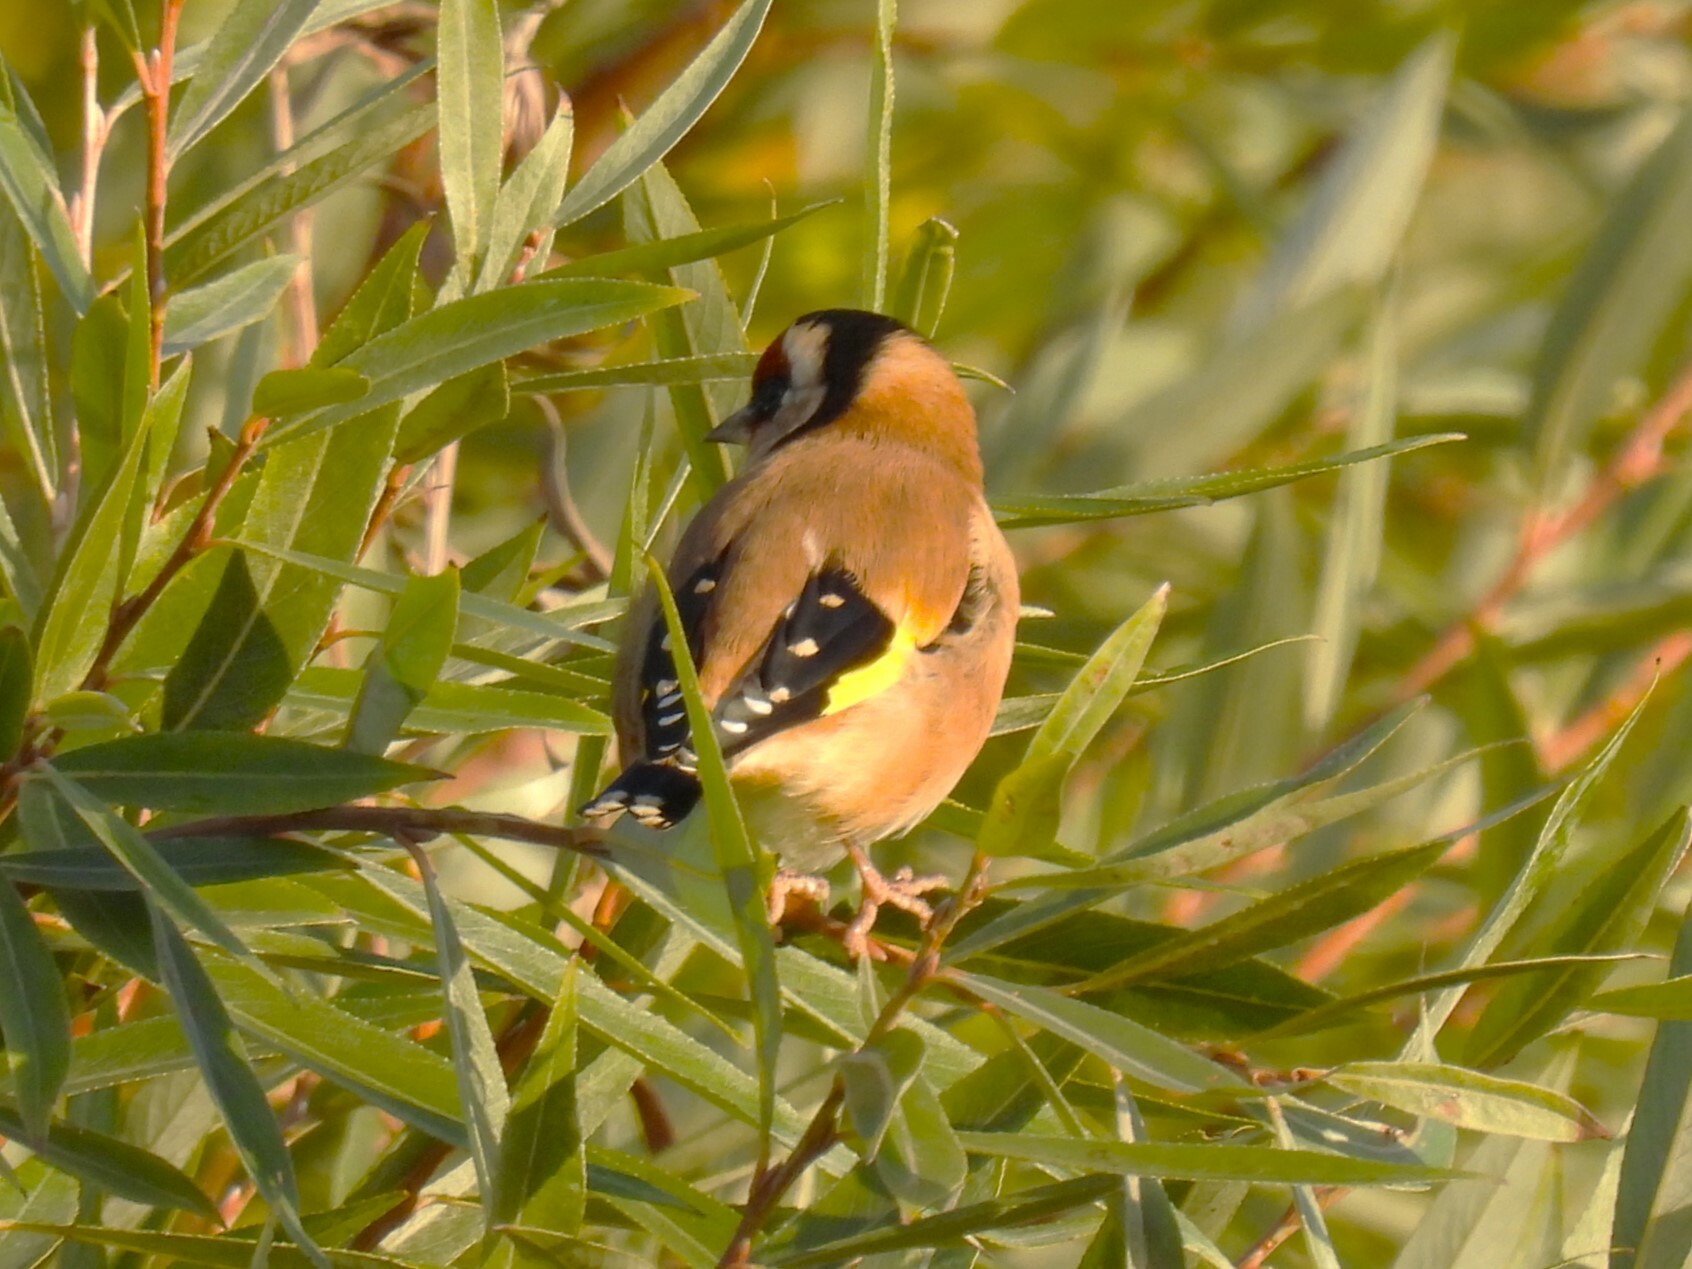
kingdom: Animalia
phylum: Chordata
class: Aves
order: Passeriformes
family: Fringillidae
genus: Carduelis
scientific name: Carduelis carduelis
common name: European goldfinch
